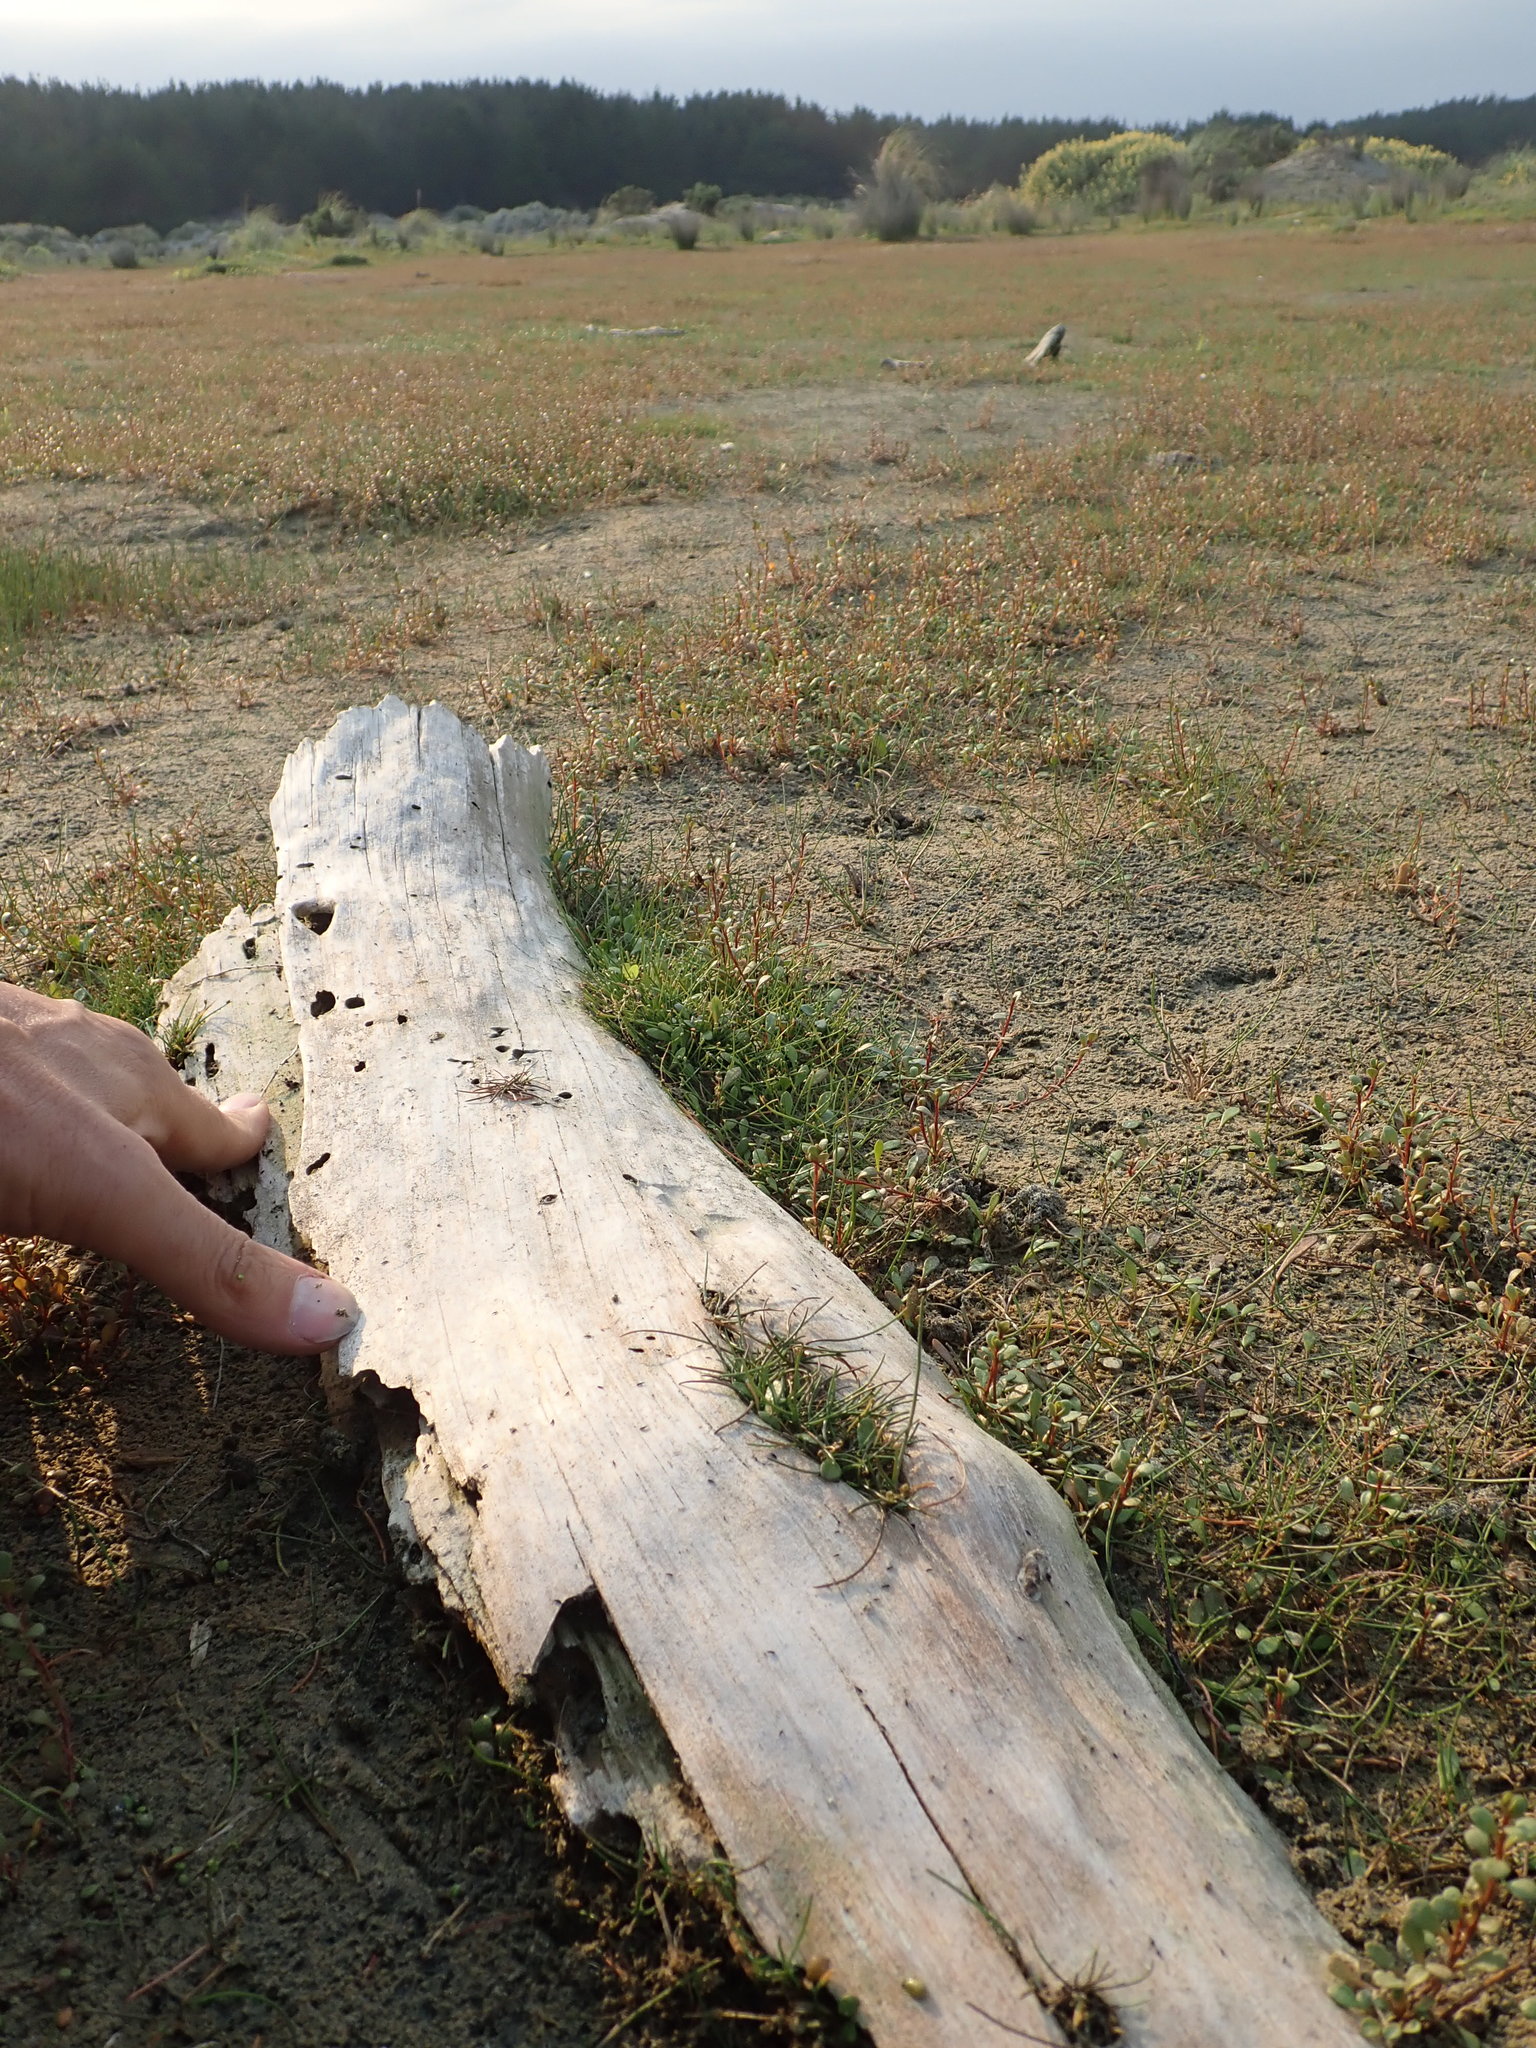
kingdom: Plantae
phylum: Tracheophyta
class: Liliopsida
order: Alismatales
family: Juncaginaceae
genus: Triglochin
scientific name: Triglochin striata
